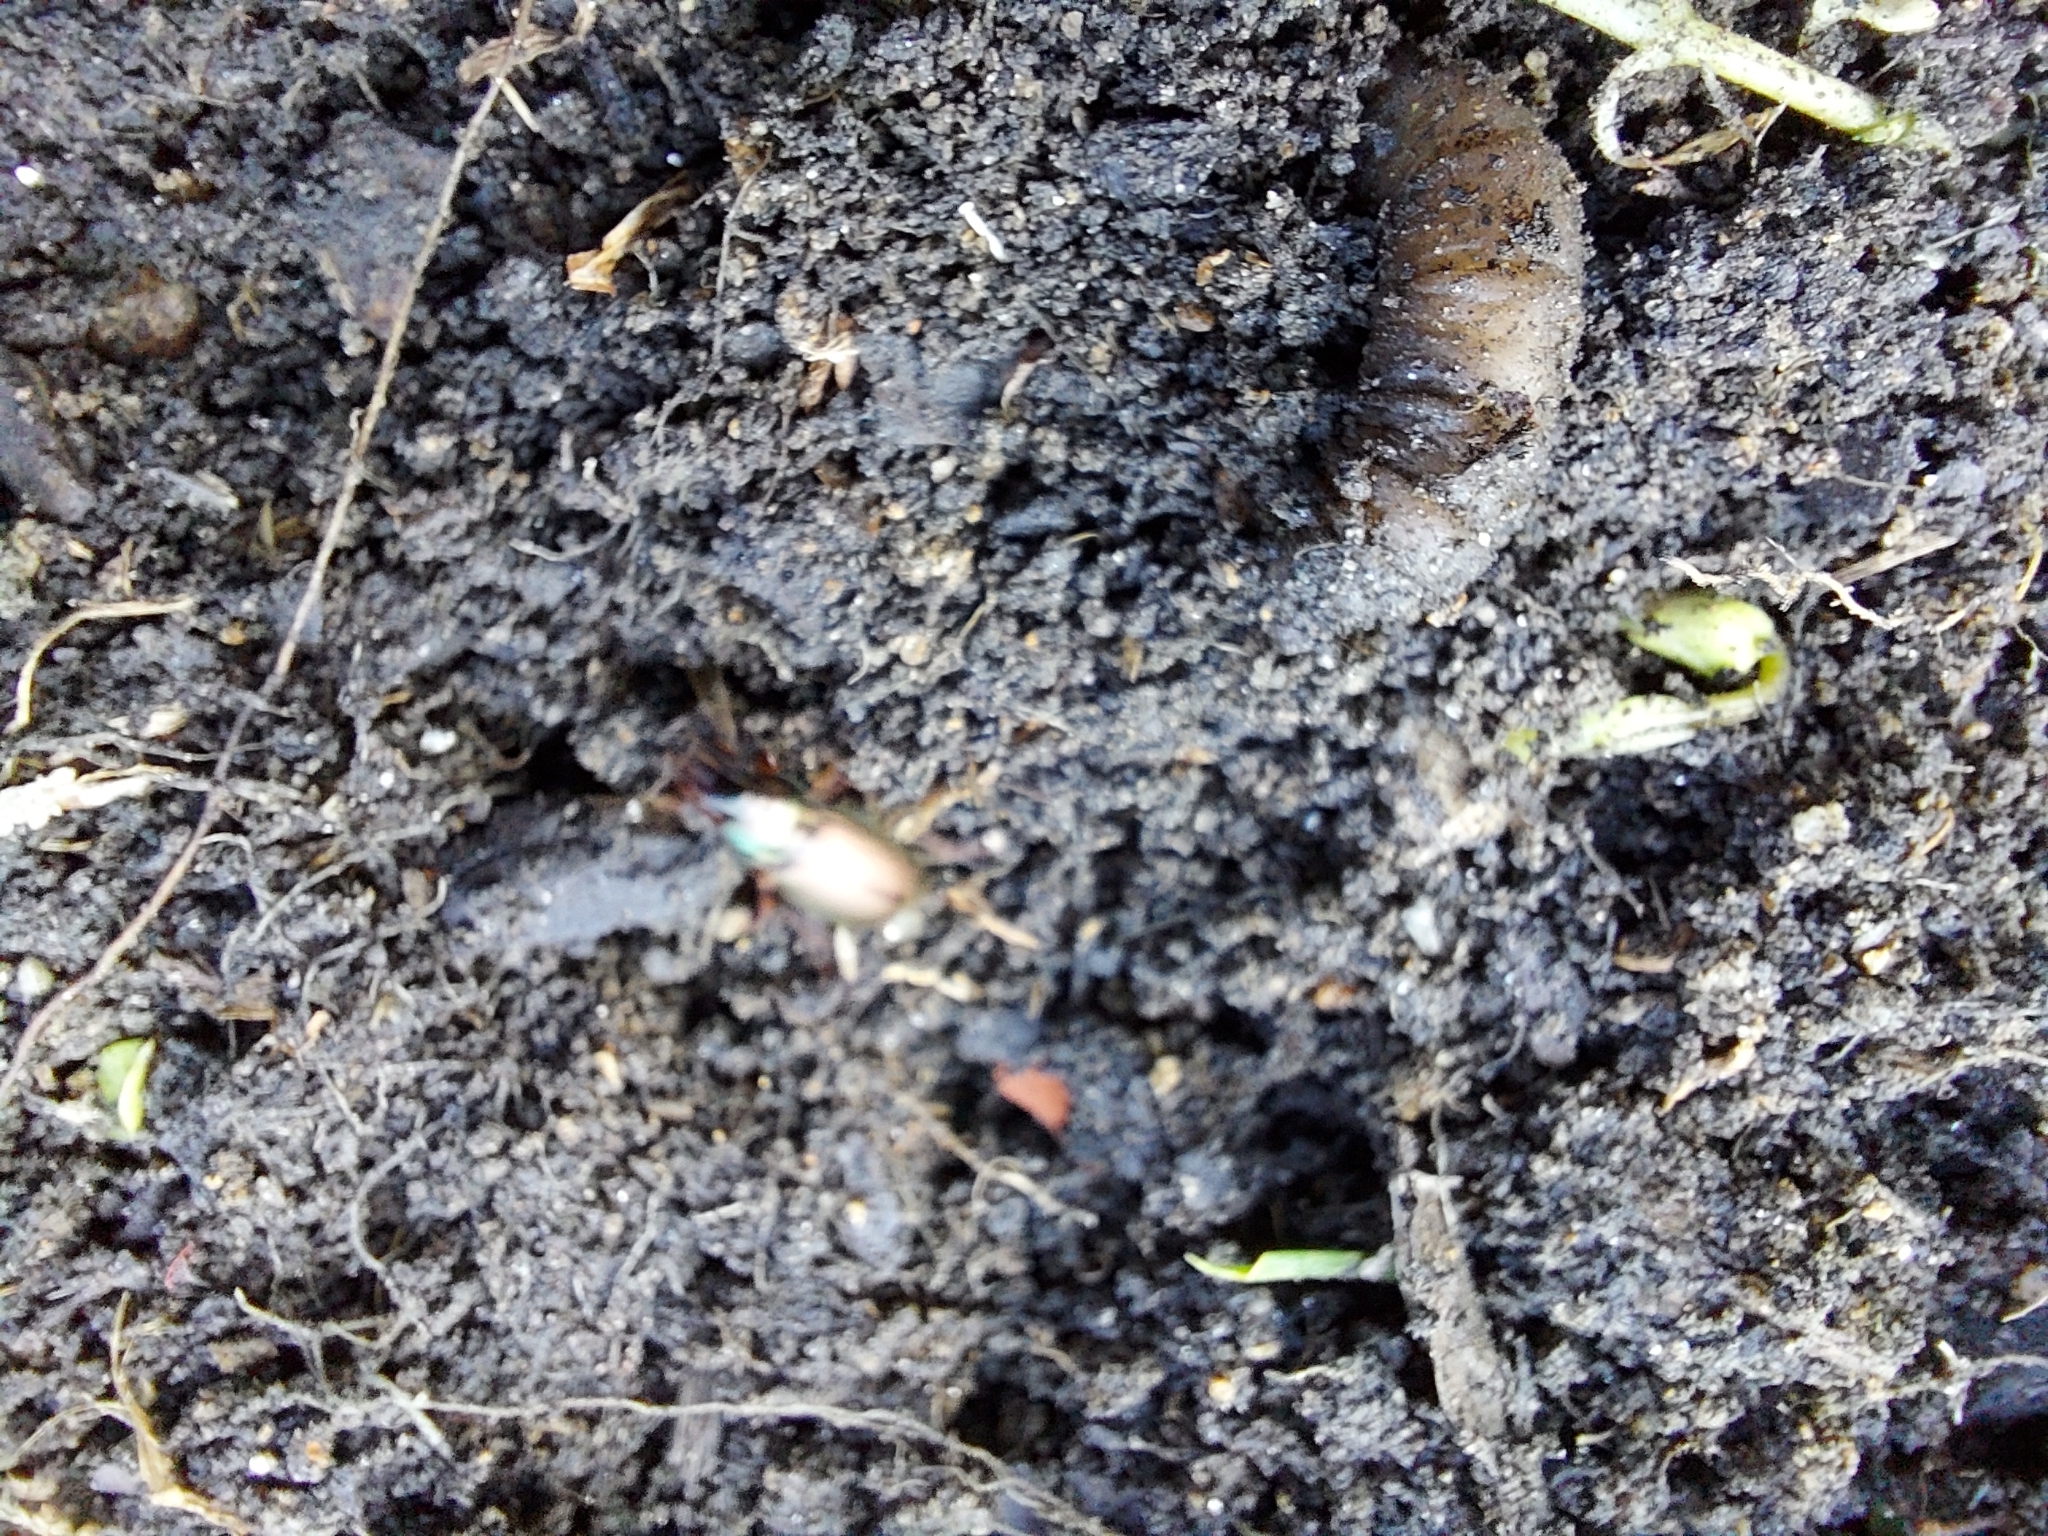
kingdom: Animalia
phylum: Arthropoda
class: Insecta
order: Coleoptera
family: Carabidae
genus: Harpalus
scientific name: Harpalus affinis
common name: Polychrome harp ground beetle
